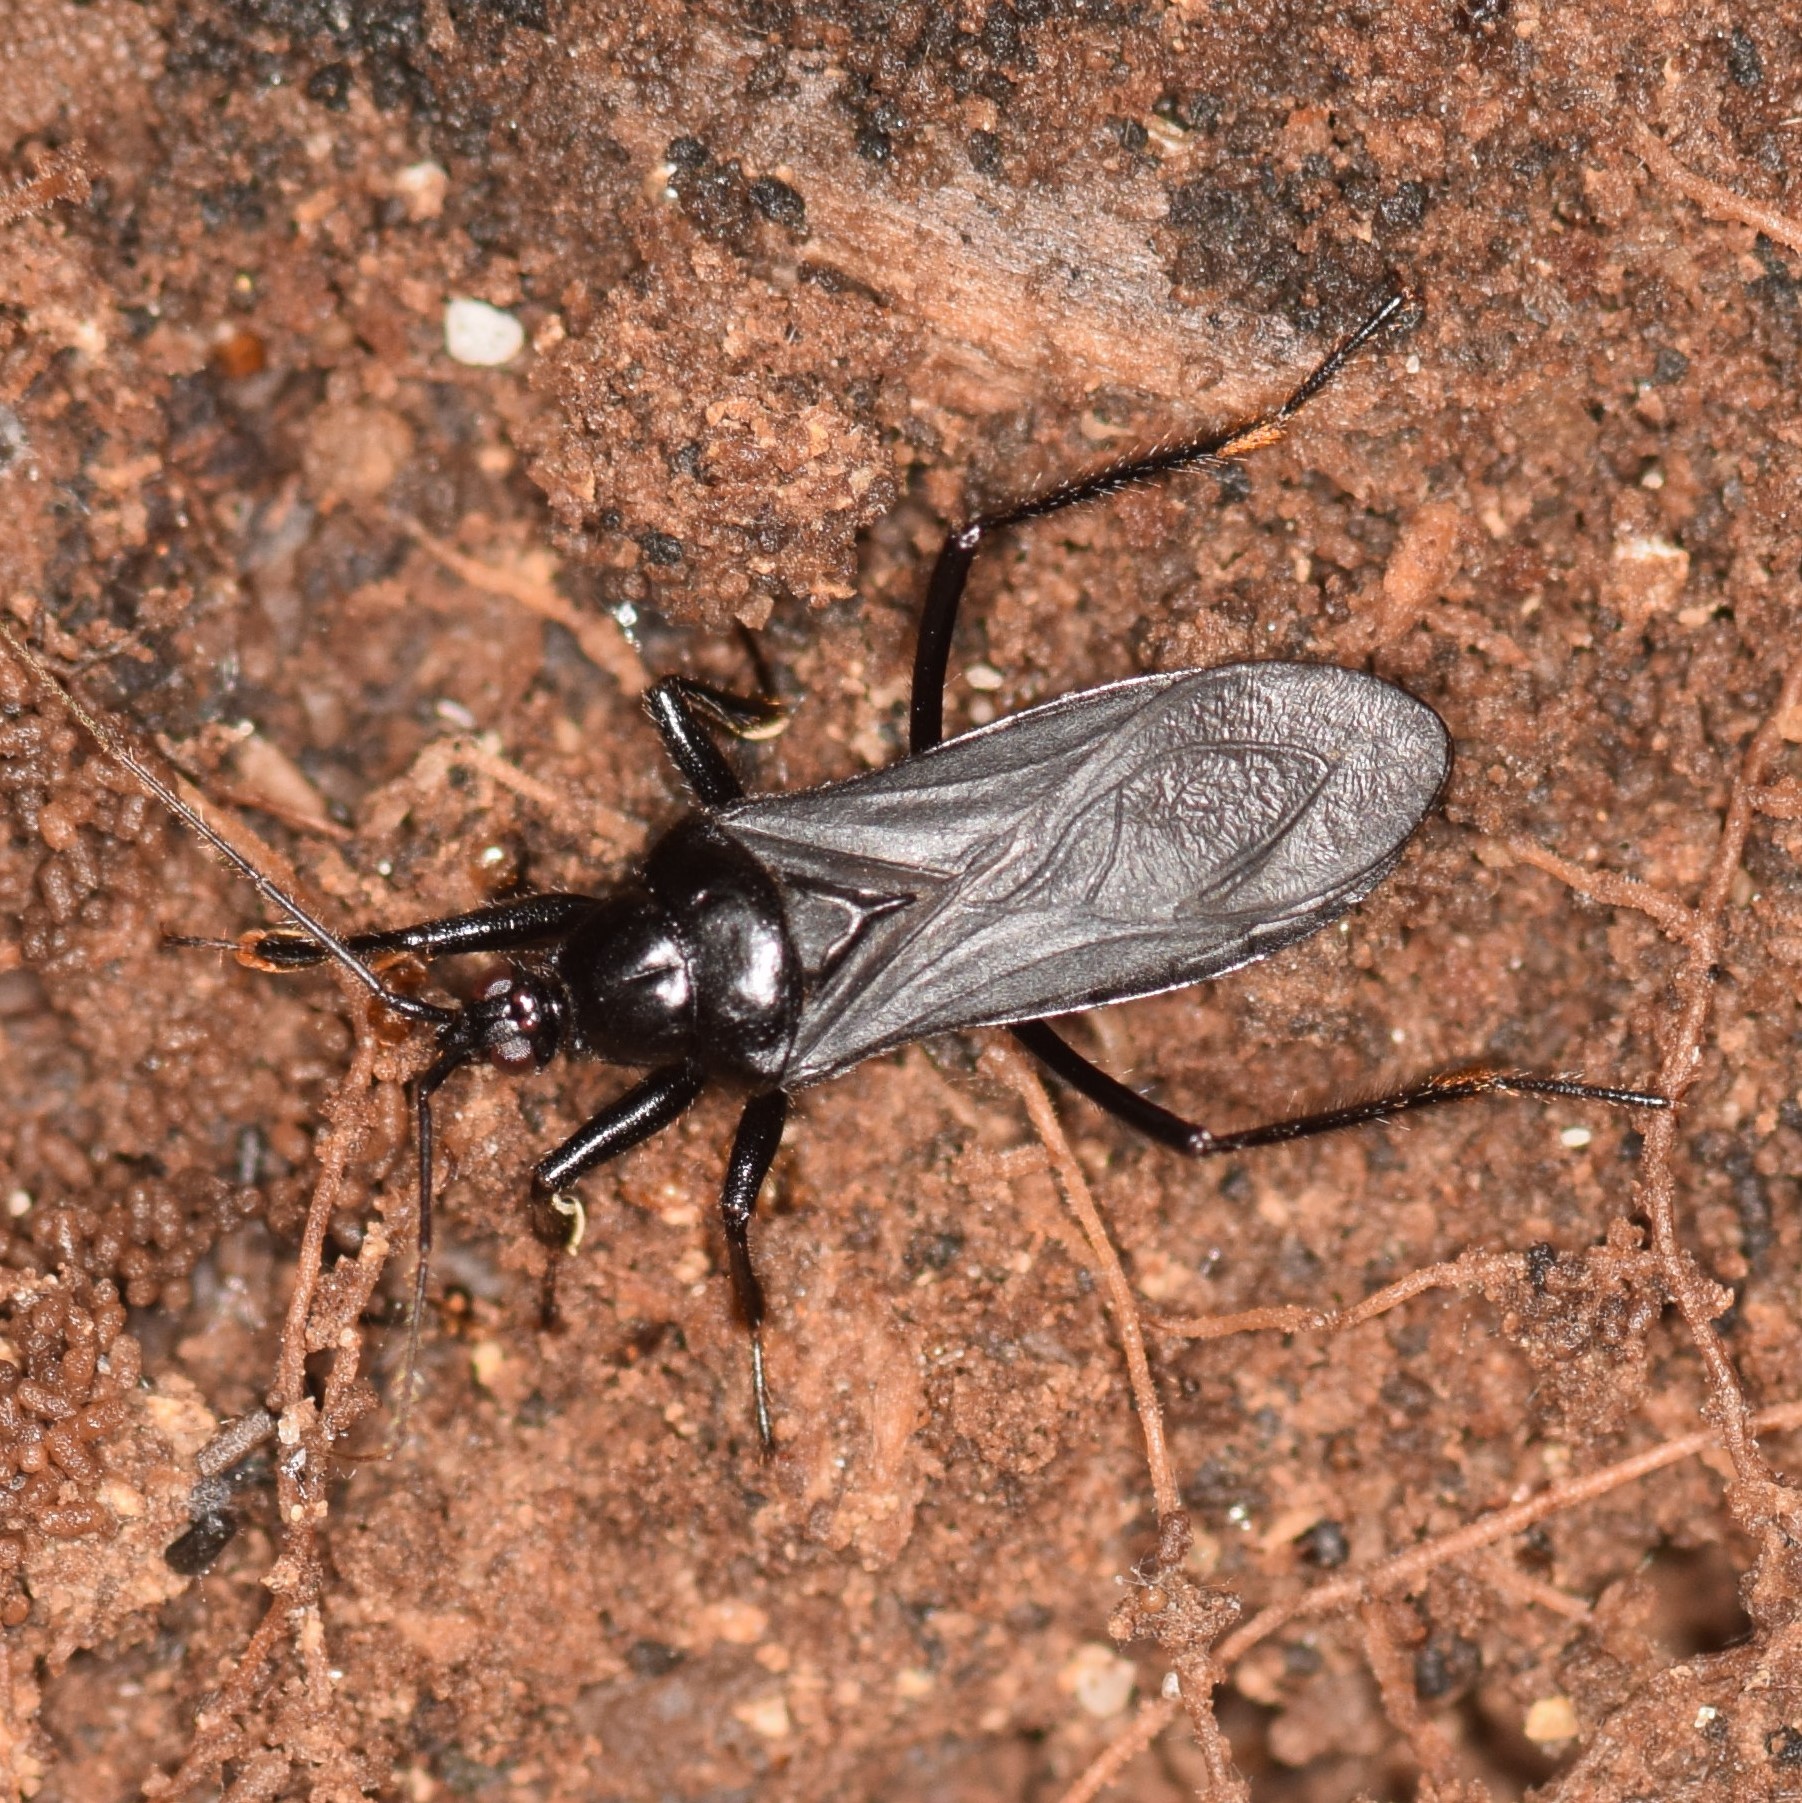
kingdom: Animalia
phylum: Arthropoda
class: Insecta
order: Hemiptera
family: Reduviidae
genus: Melanolestes
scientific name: Melanolestes picipes
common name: Assassin bug
